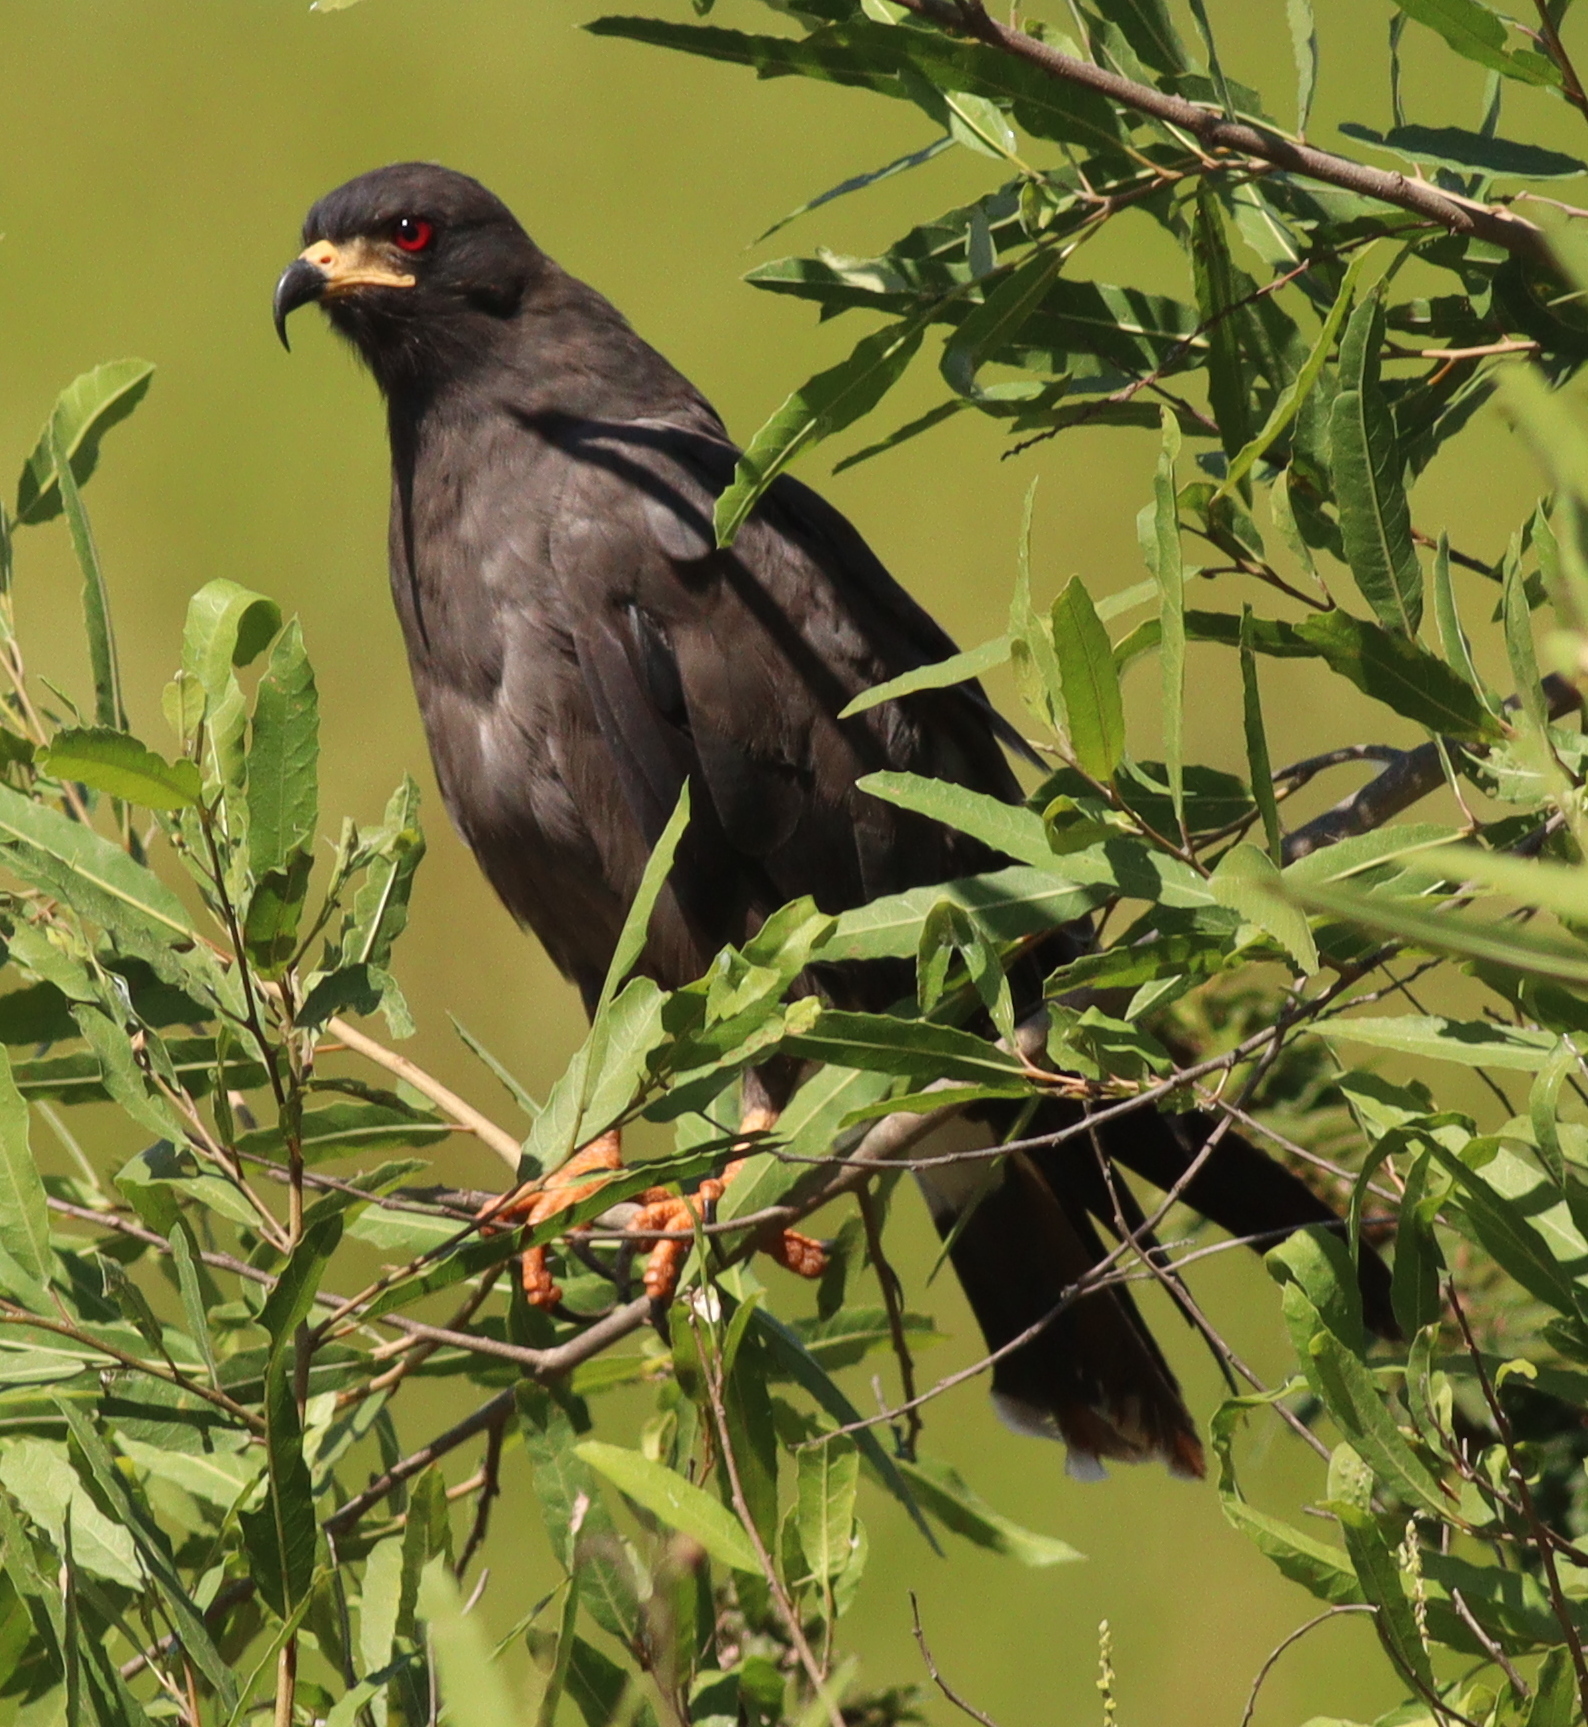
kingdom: Animalia
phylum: Chordata
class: Aves
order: Accipitriformes
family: Accipitridae
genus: Rostrhamus
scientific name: Rostrhamus sociabilis
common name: Snail kite
